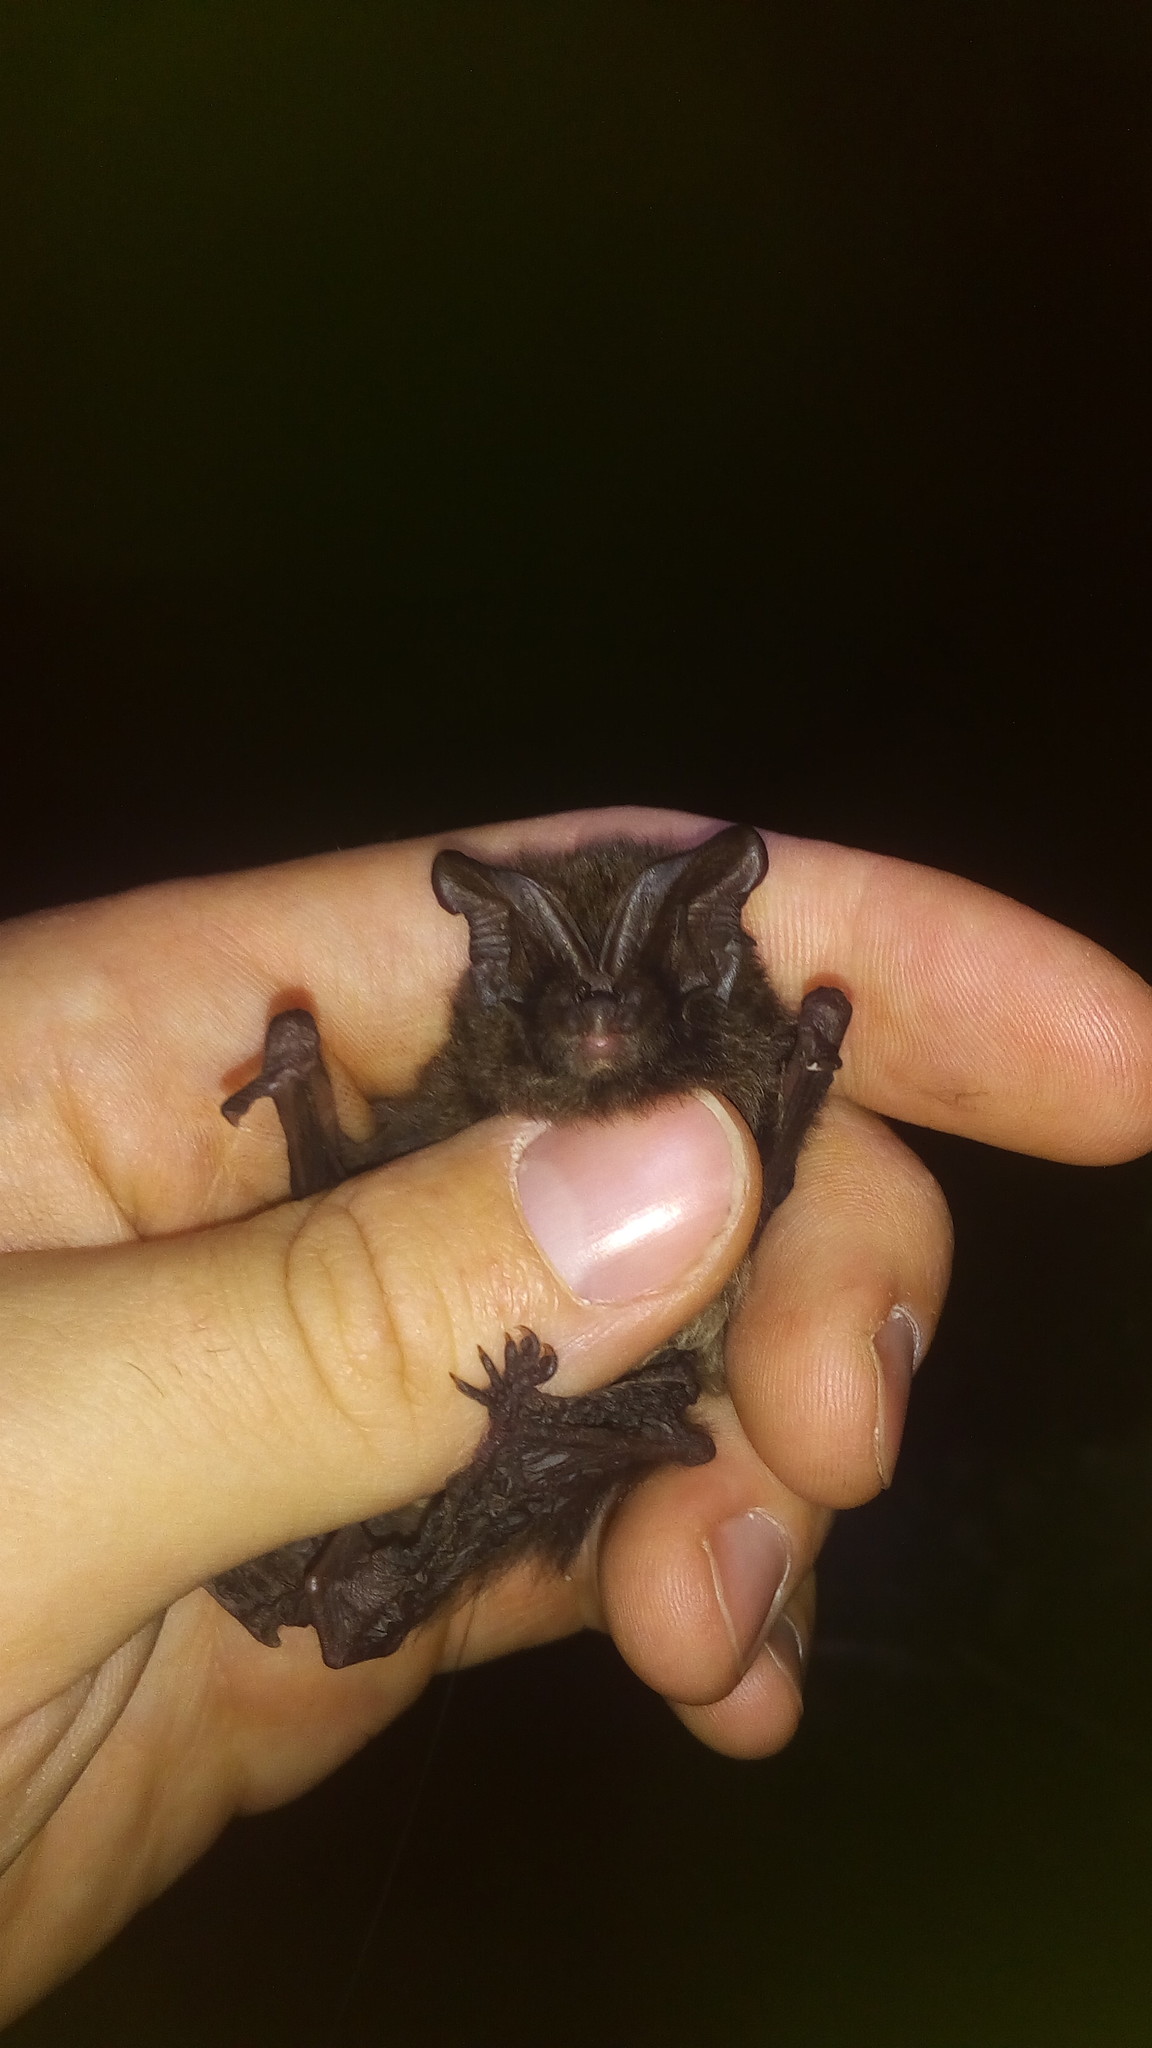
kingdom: Animalia
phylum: Chordata
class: Mammalia
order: Chiroptera
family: Vespertilionidae
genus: Barbastella
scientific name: Barbastella barbastellus
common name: Western barbastelle
